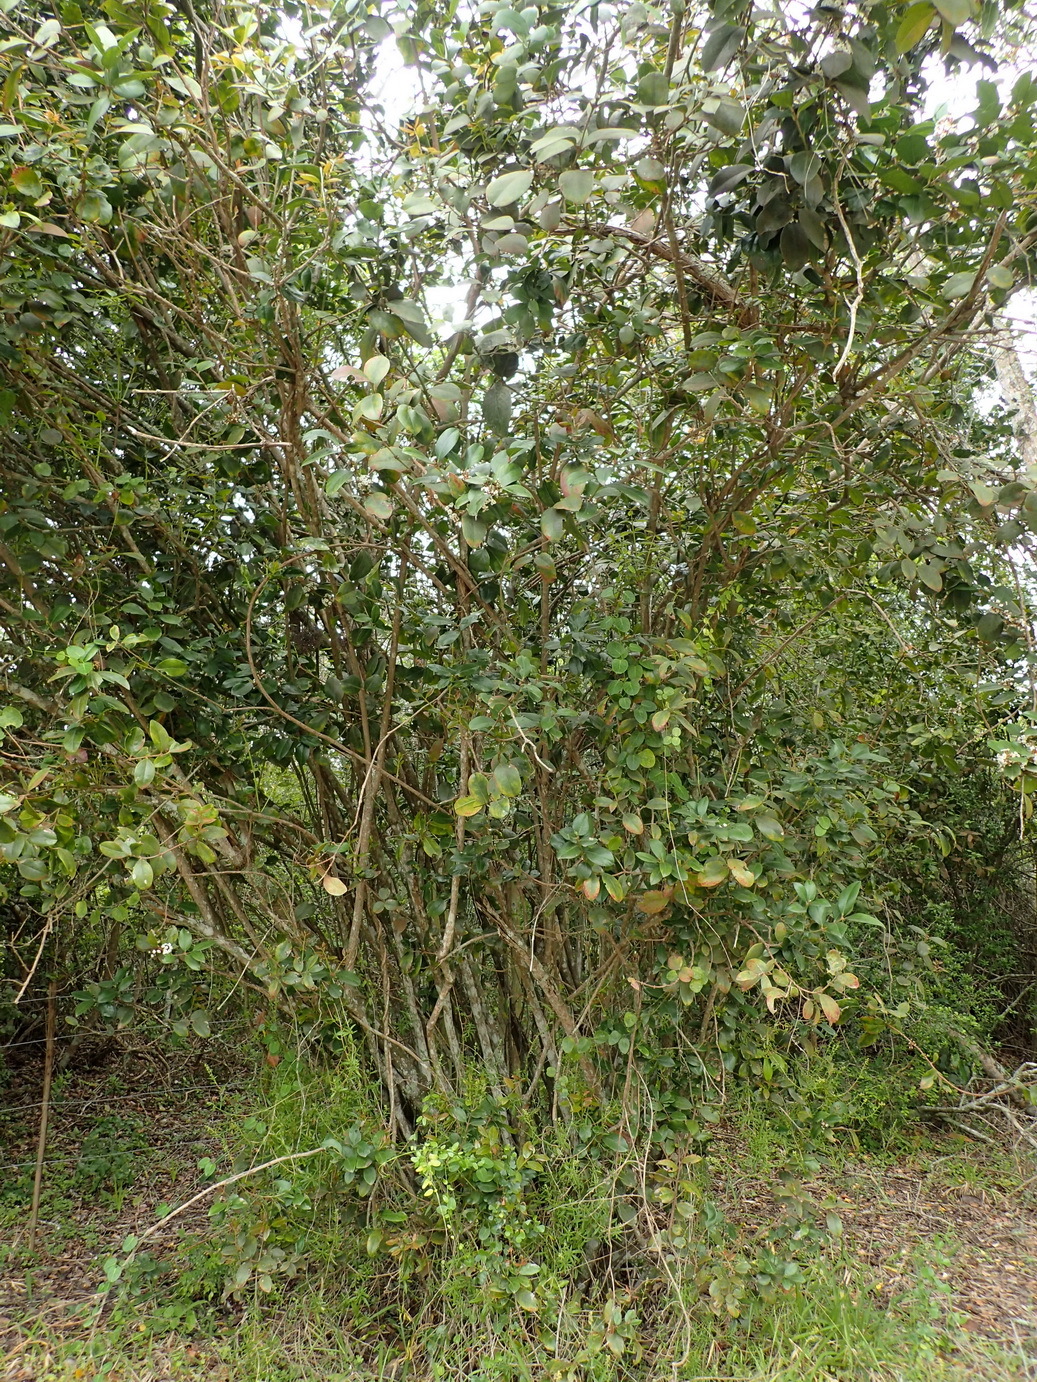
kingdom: Plantae
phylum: Tracheophyta
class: Magnoliopsida
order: Gentianales
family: Apocynaceae
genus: Acokanthera
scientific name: Acokanthera oppositifolia
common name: Bushman's-poison
